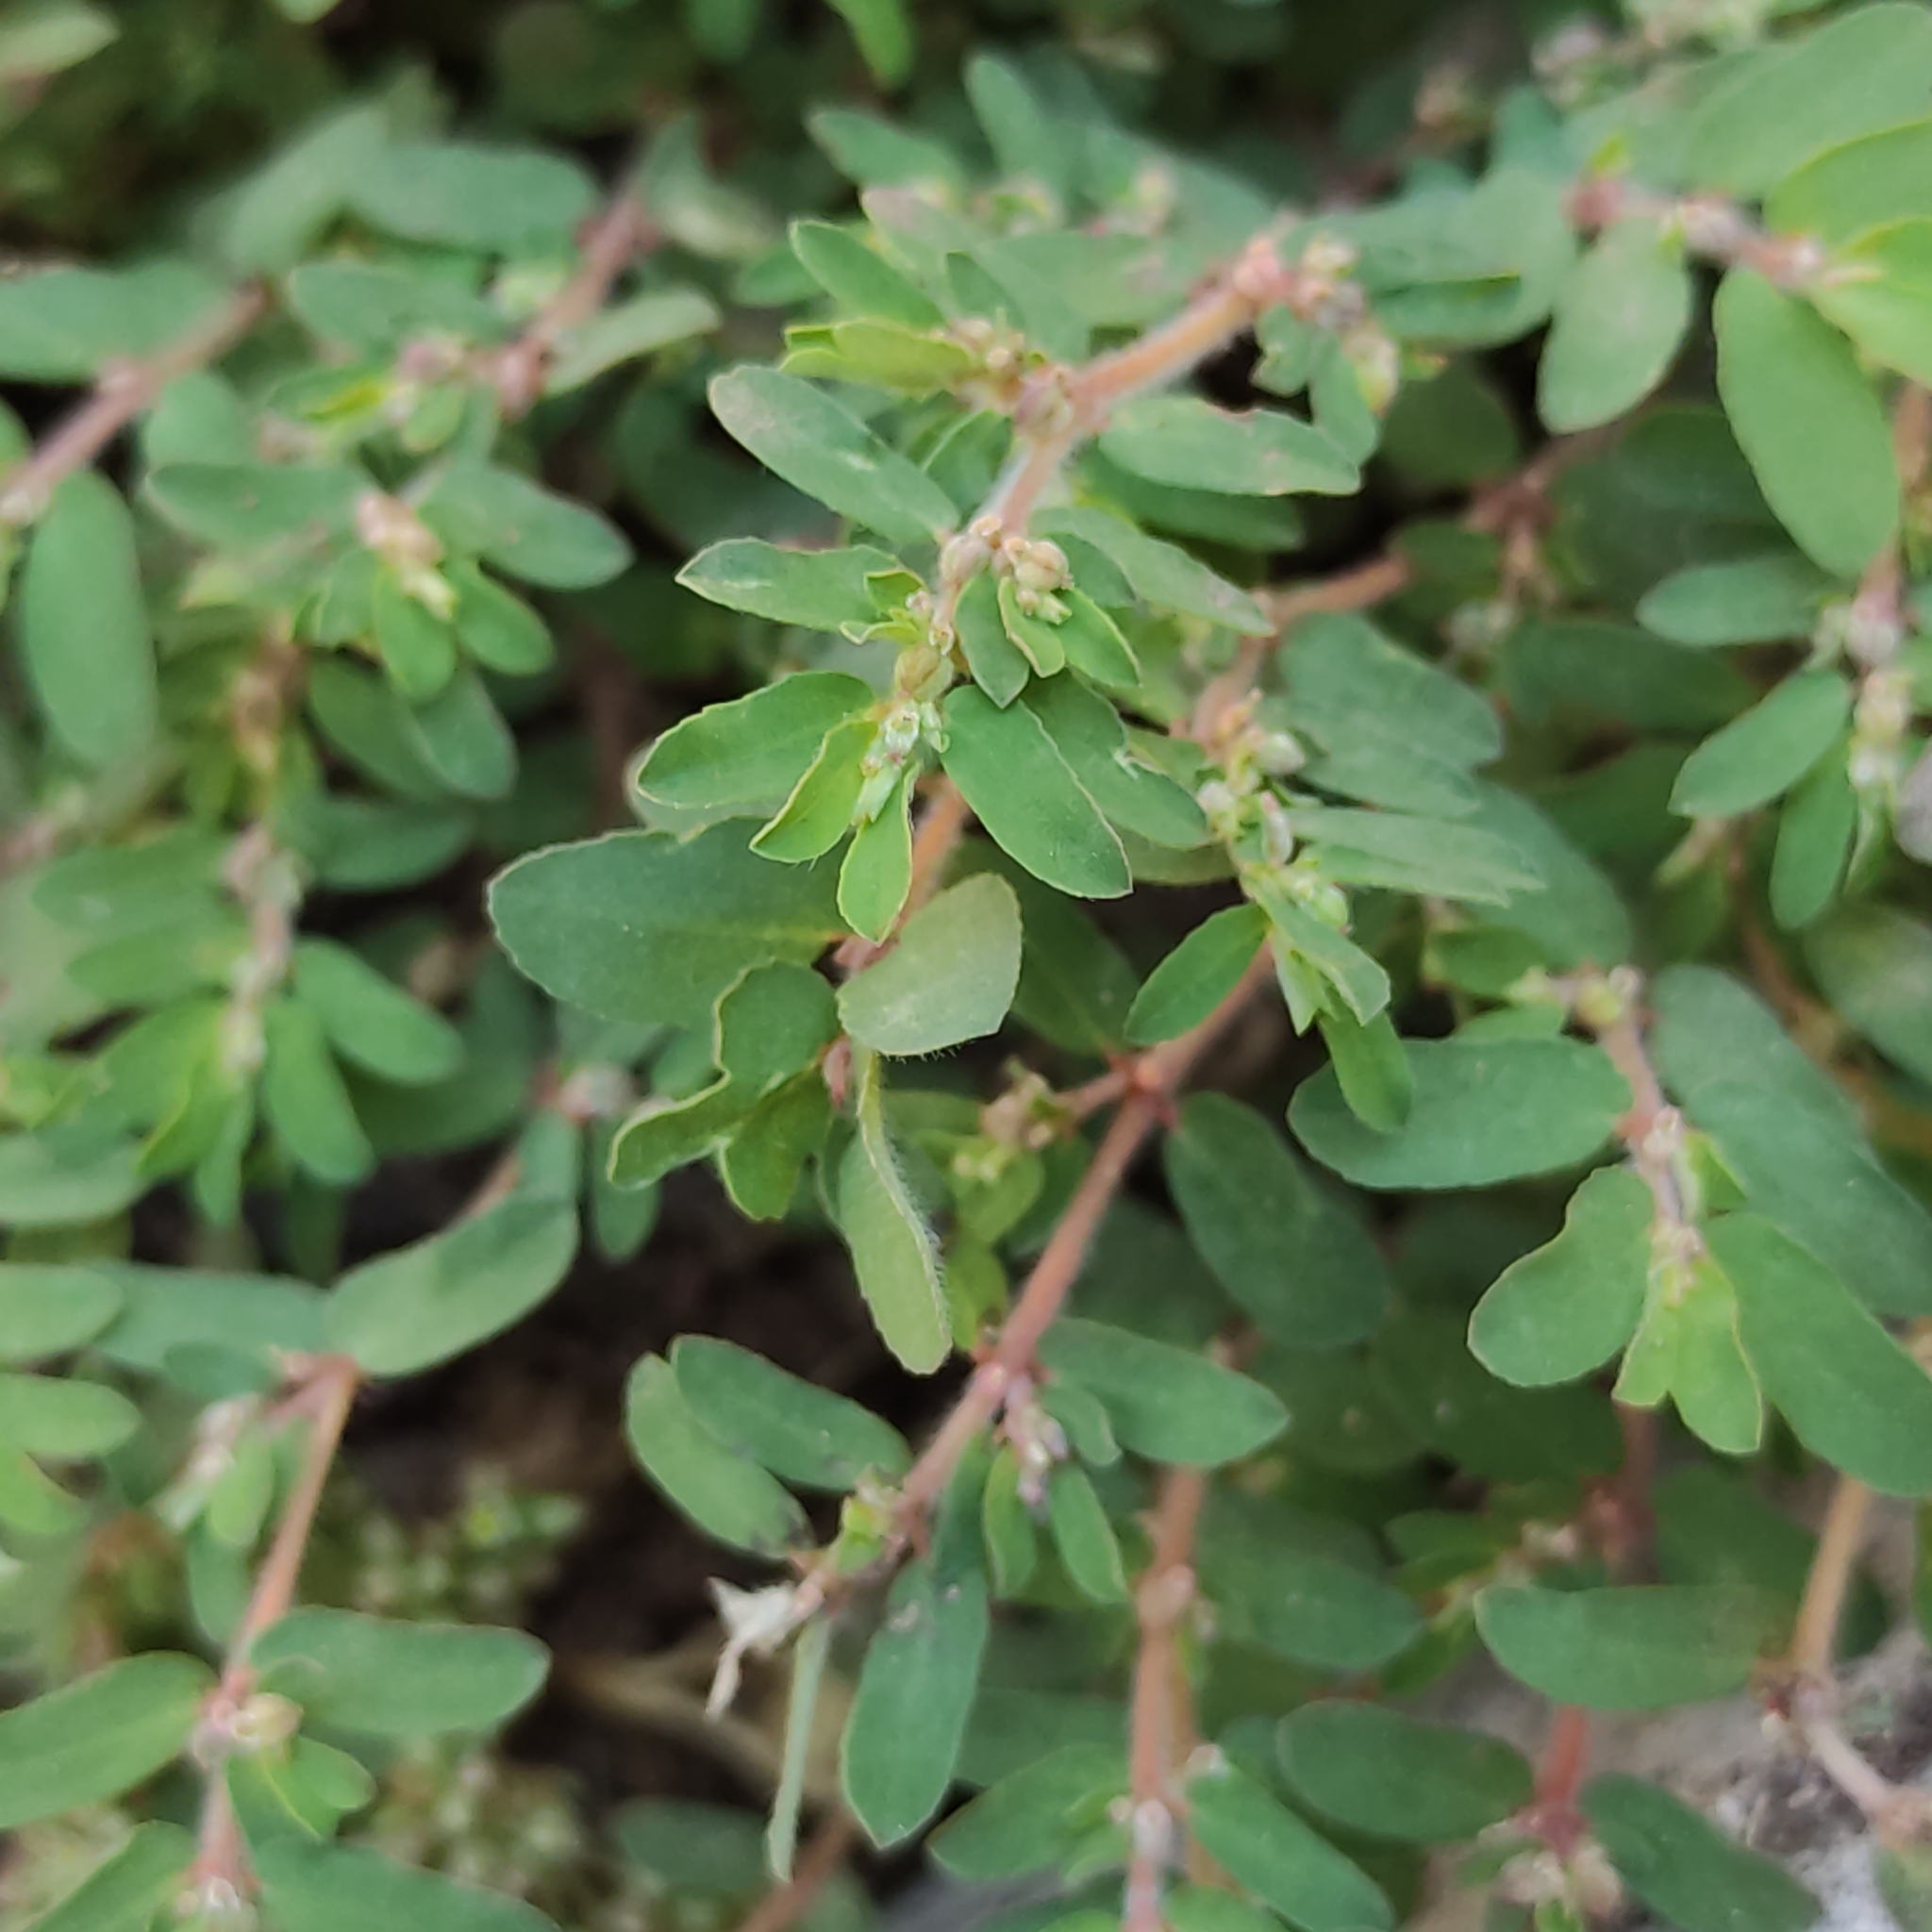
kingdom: Plantae
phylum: Tracheophyta
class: Magnoliopsida
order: Malpighiales
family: Euphorbiaceae
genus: Euphorbia
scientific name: Euphorbia maculata
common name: Spotted spurge
